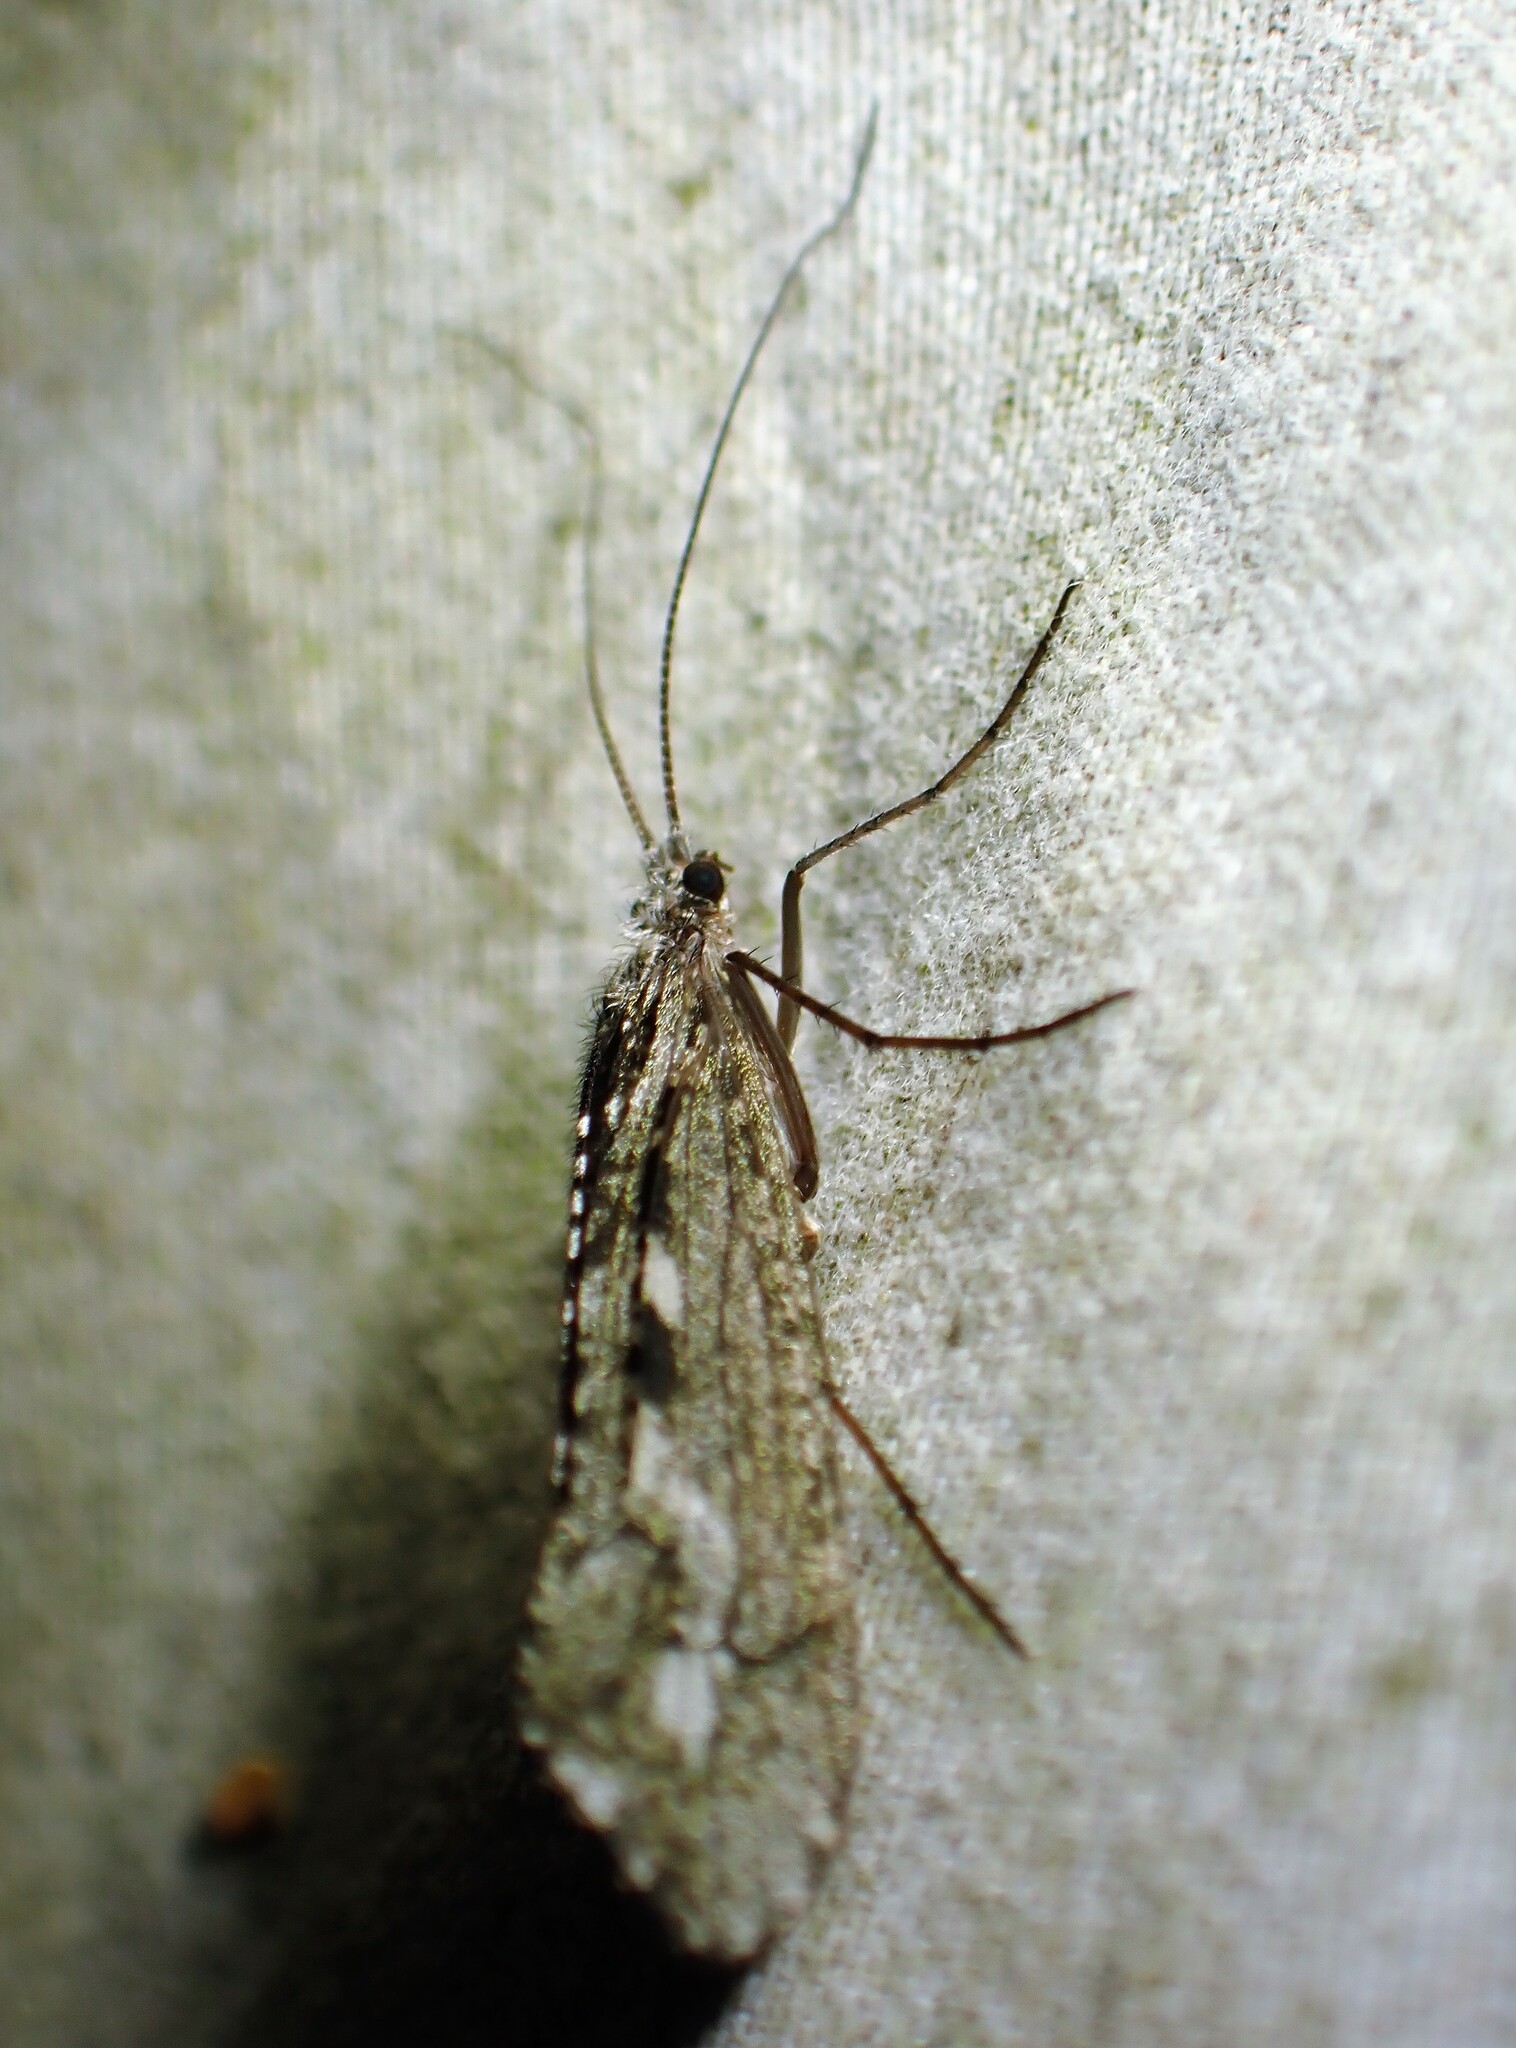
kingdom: Animalia
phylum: Arthropoda
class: Insecta
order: Trichoptera
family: Limnephilidae
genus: Glyphopsyche
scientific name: Glyphopsyche irrorata
